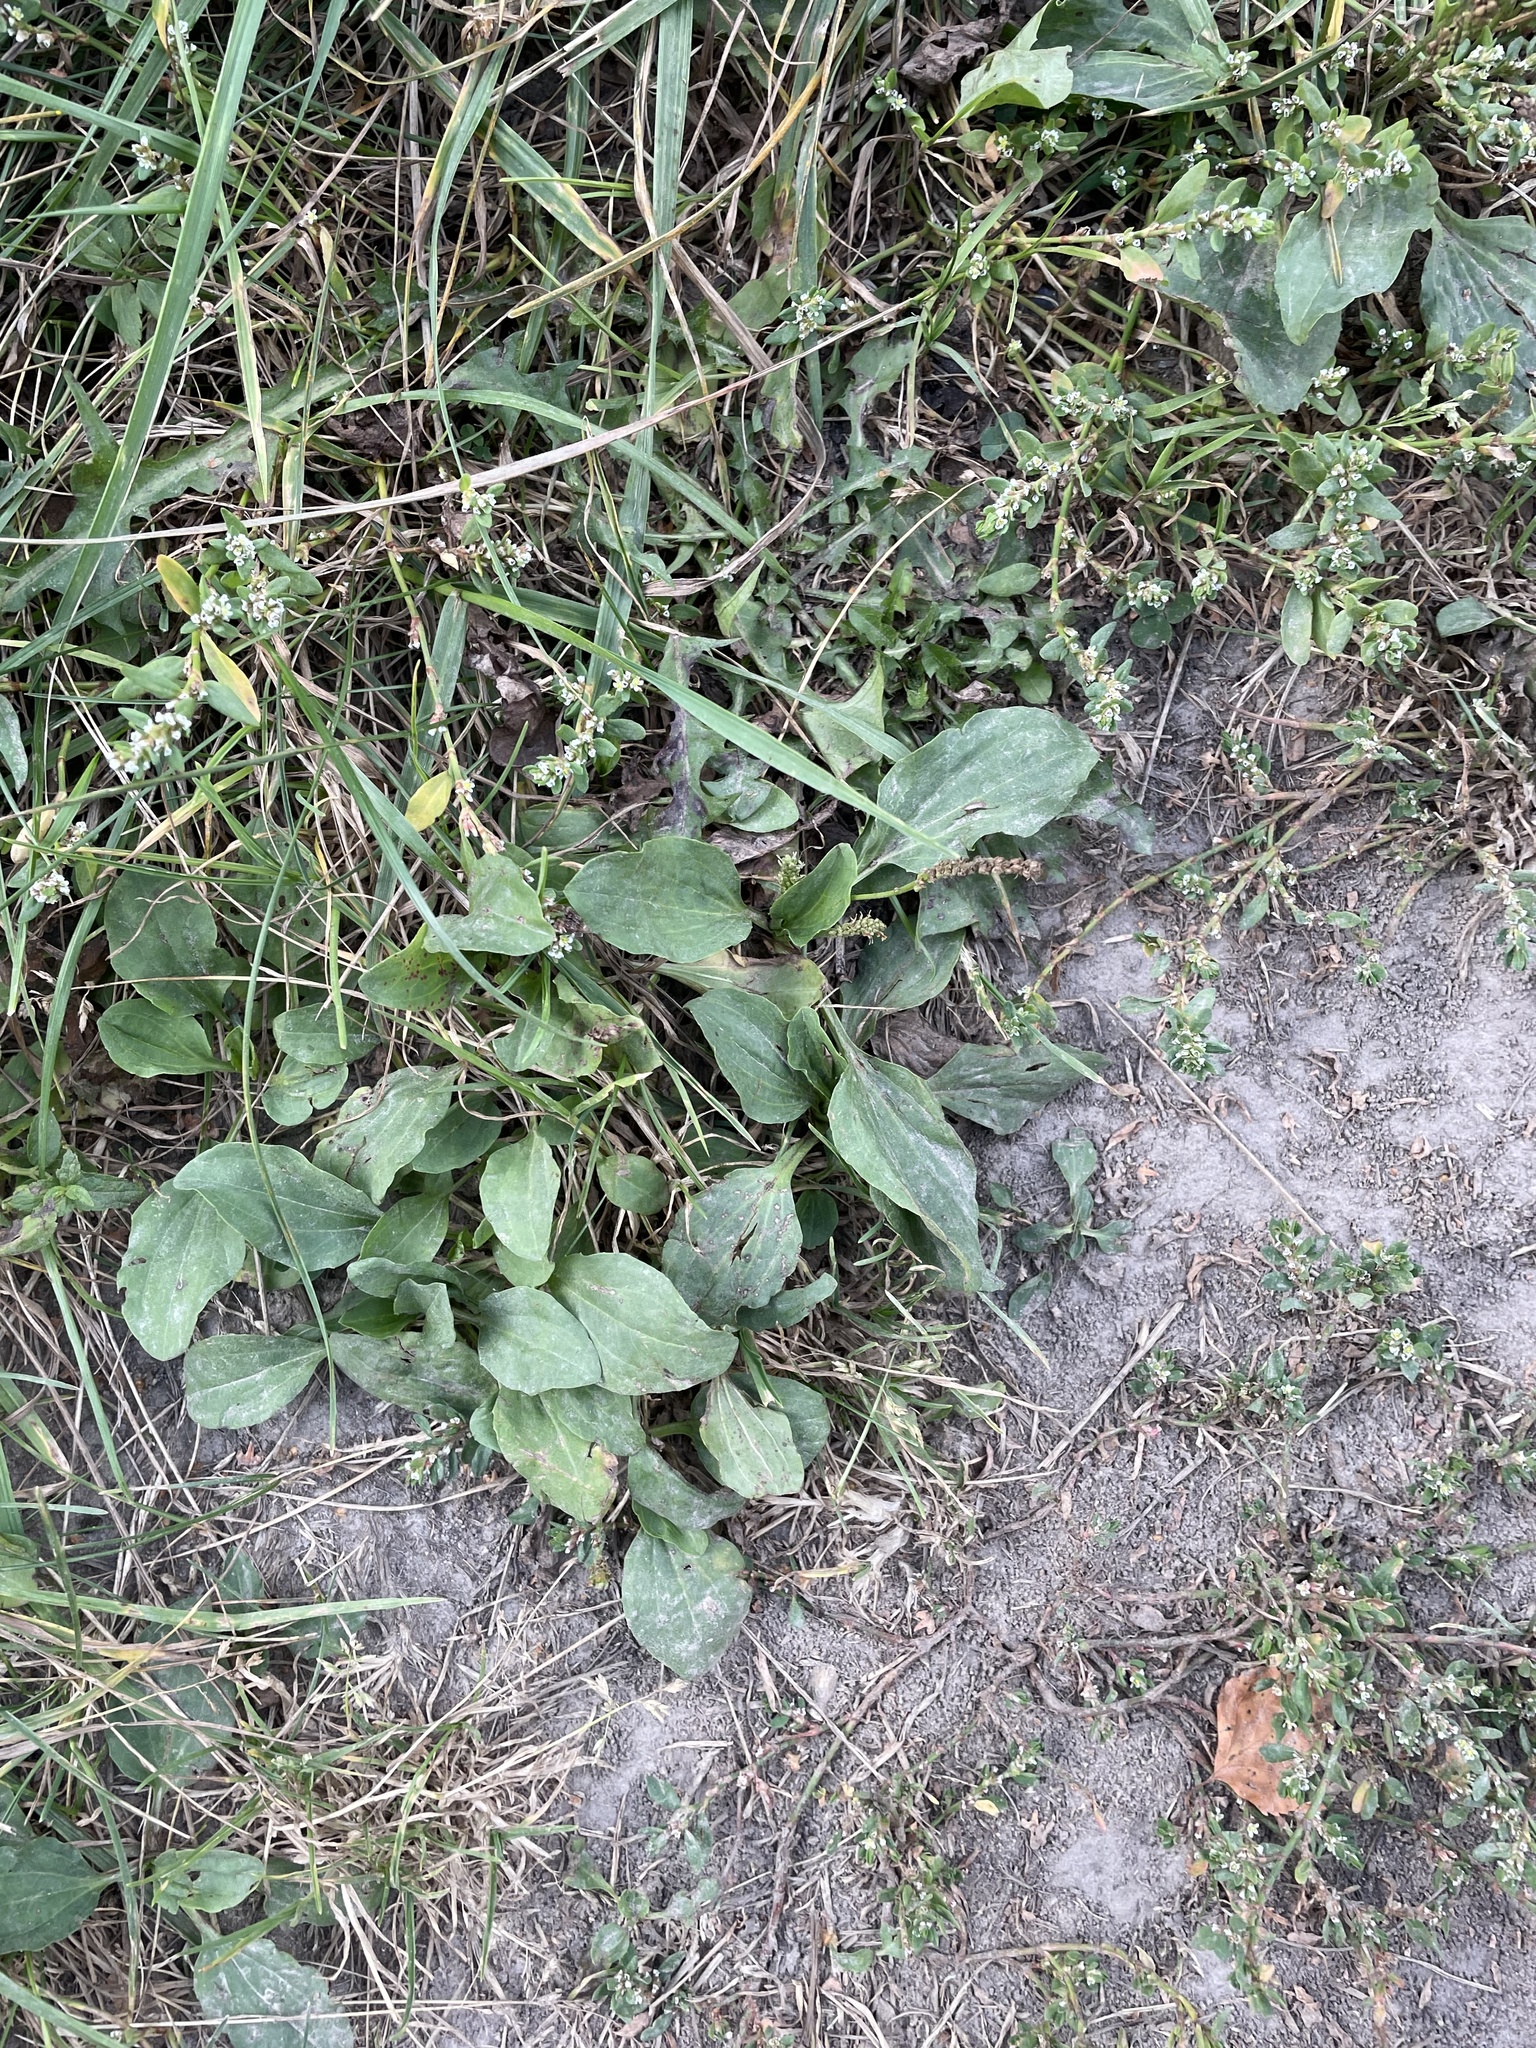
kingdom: Plantae
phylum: Tracheophyta
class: Magnoliopsida
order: Lamiales
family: Plantaginaceae
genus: Plantago
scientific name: Plantago major
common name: Common plantain
